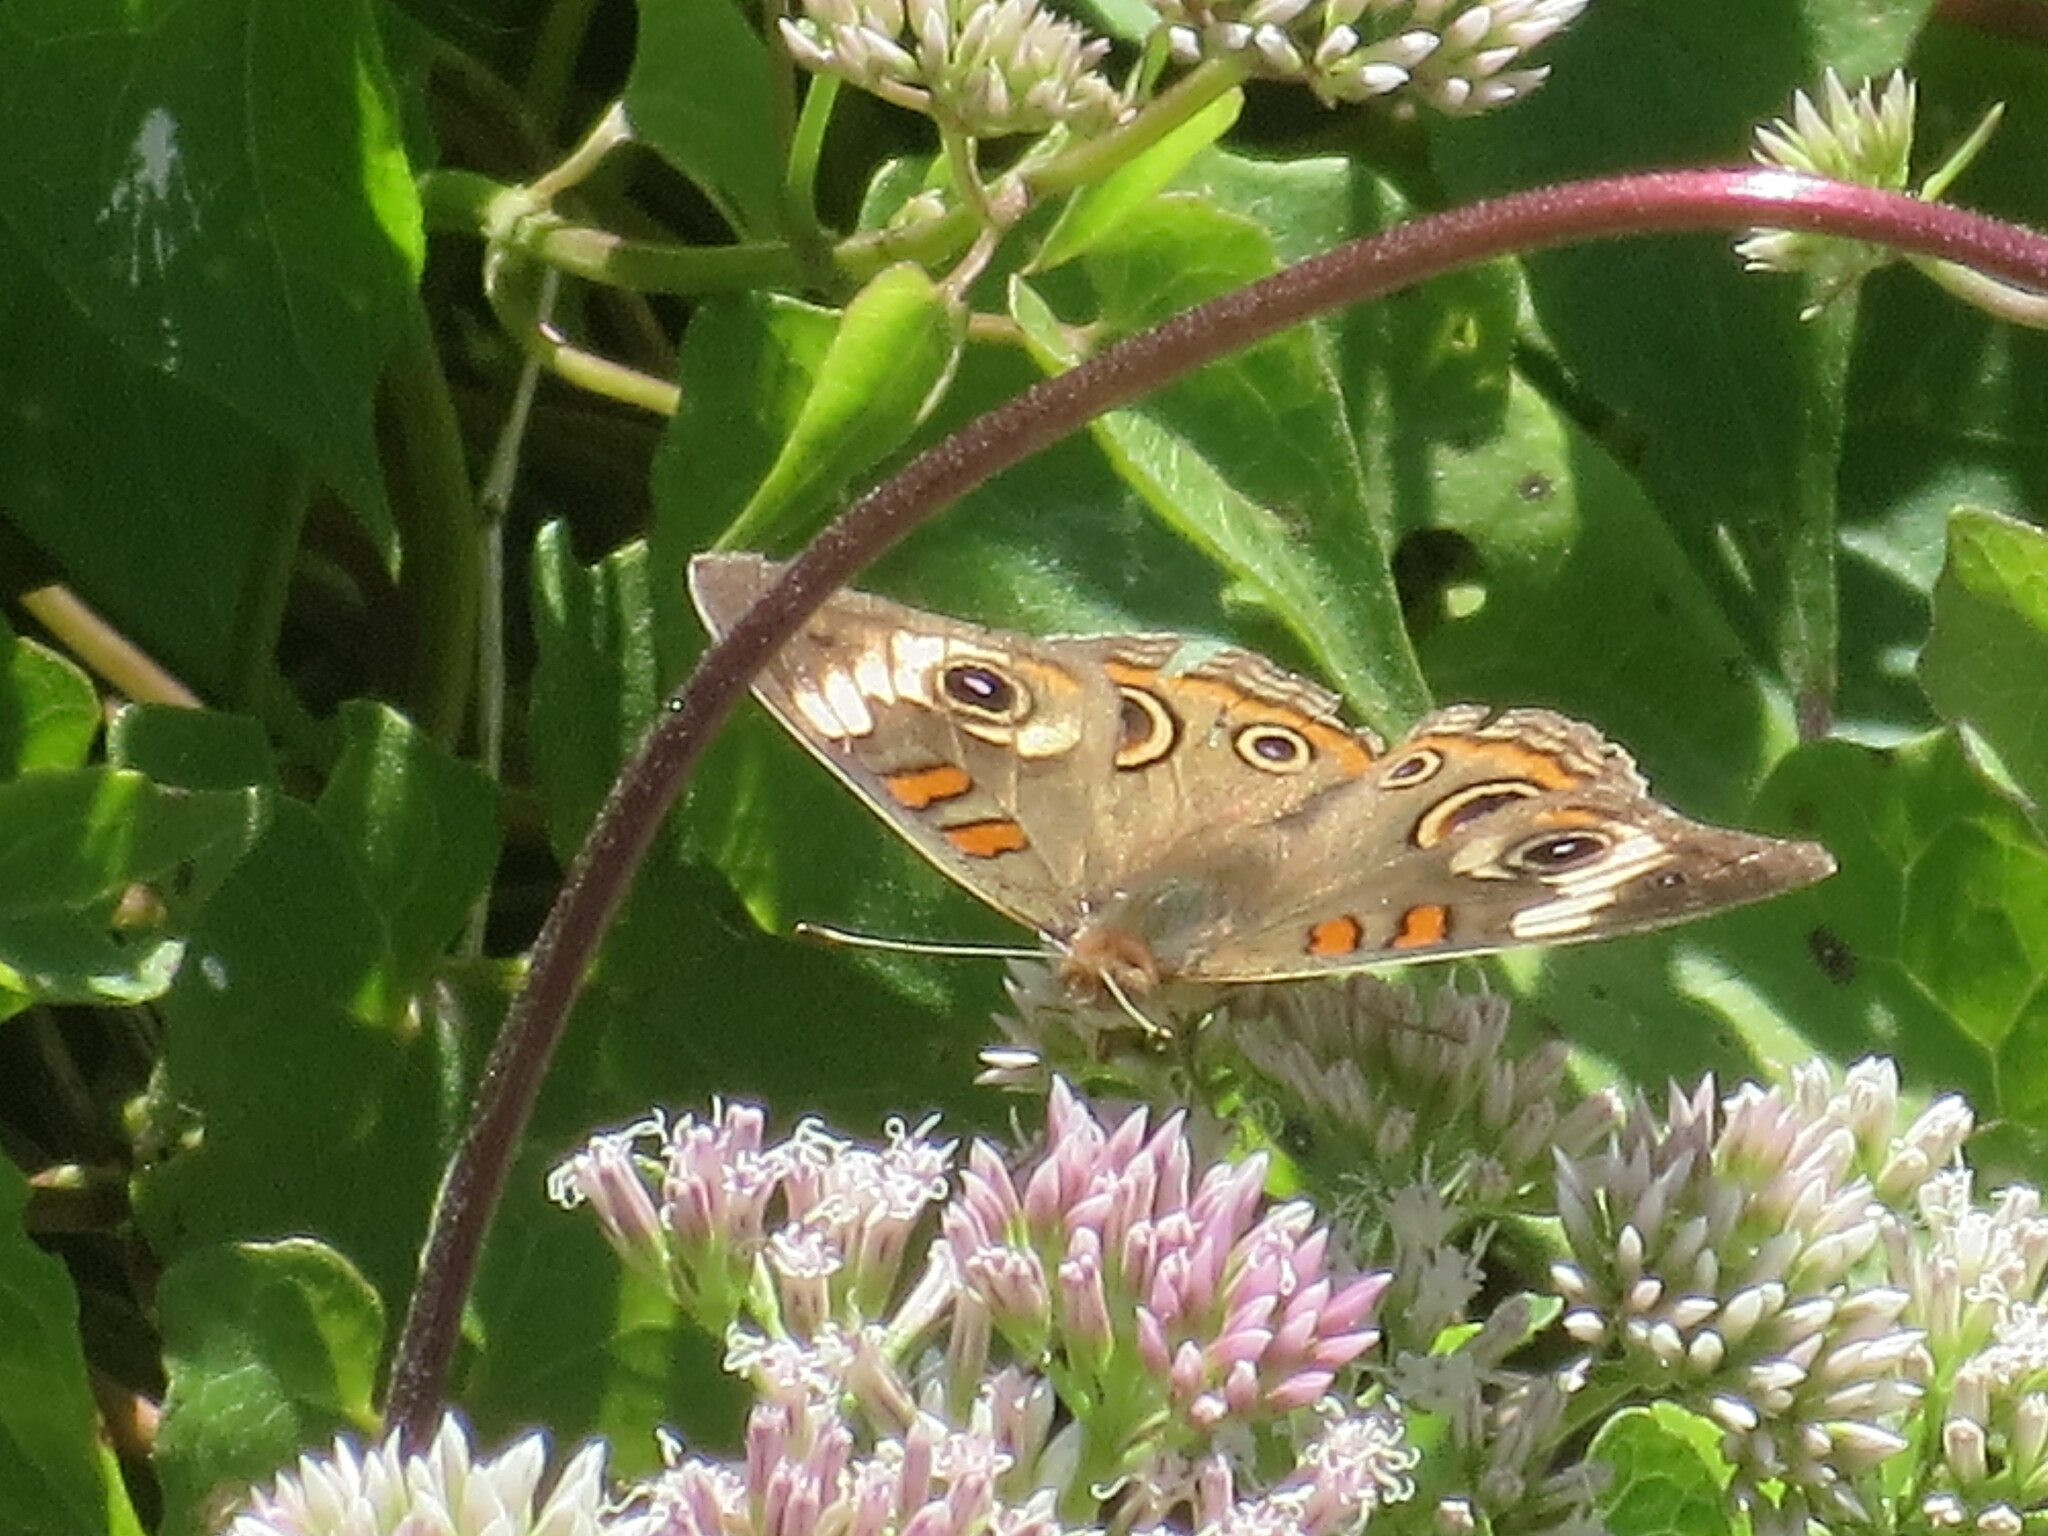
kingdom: Animalia
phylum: Arthropoda
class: Insecta
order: Lepidoptera
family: Nymphalidae
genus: Junonia
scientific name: Junonia coenia
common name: Common buckeye
